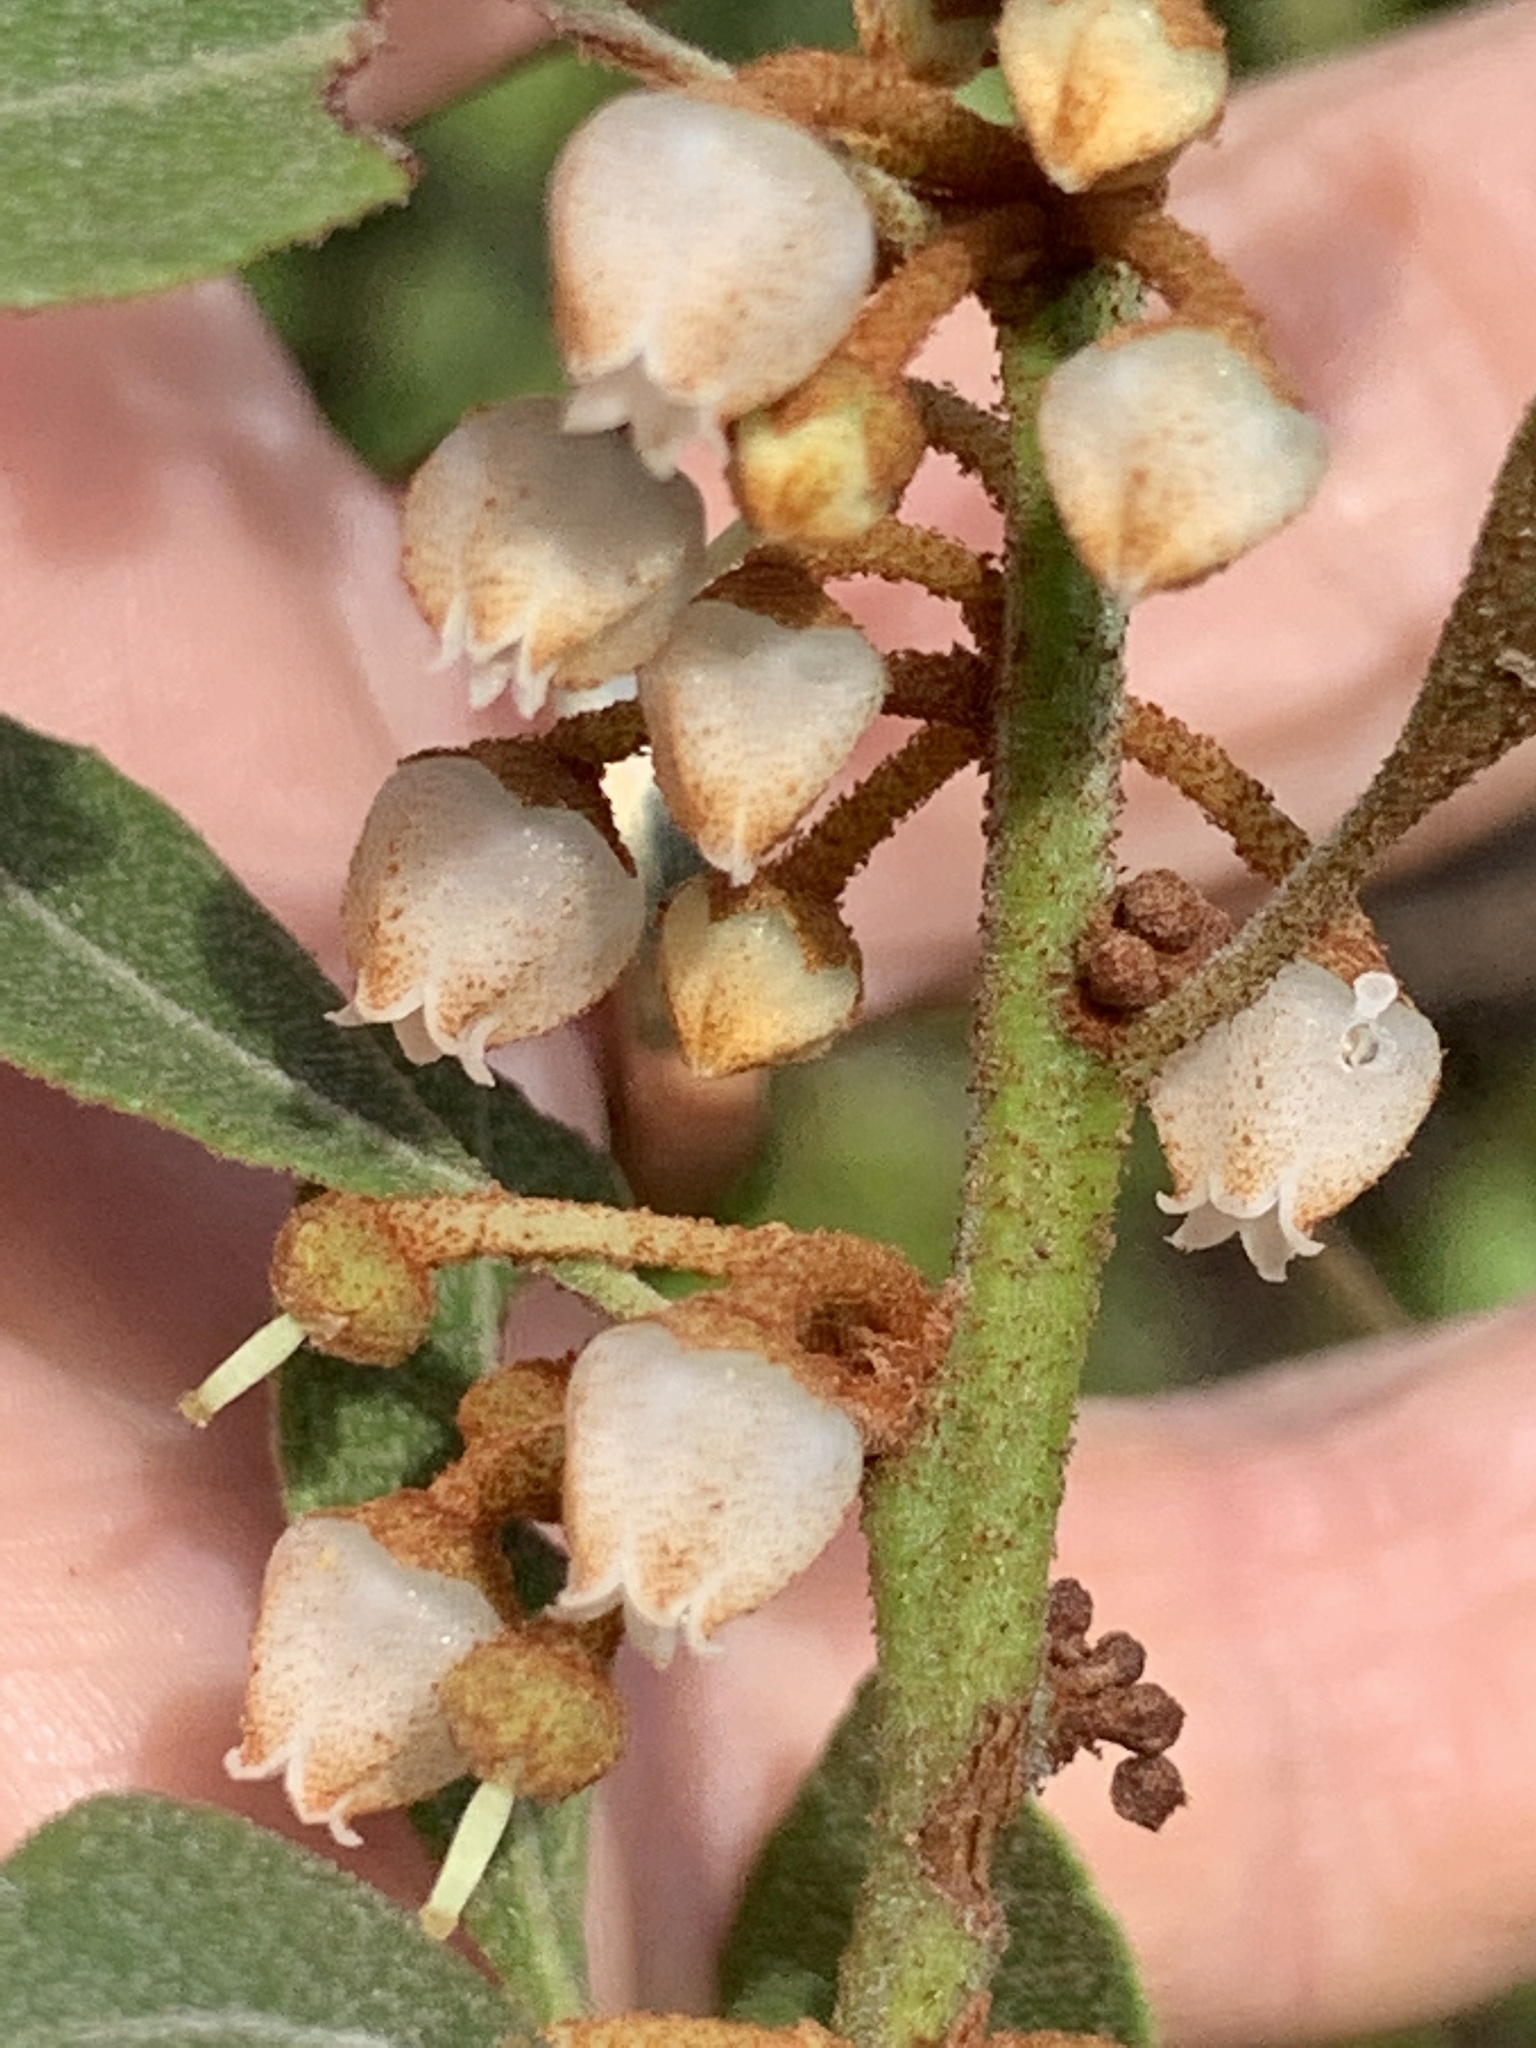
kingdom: Plantae
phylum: Tracheophyta
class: Magnoliopsida
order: Ericales
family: Ericaceae
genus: Lyonia
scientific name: Lyonia fruticosa
